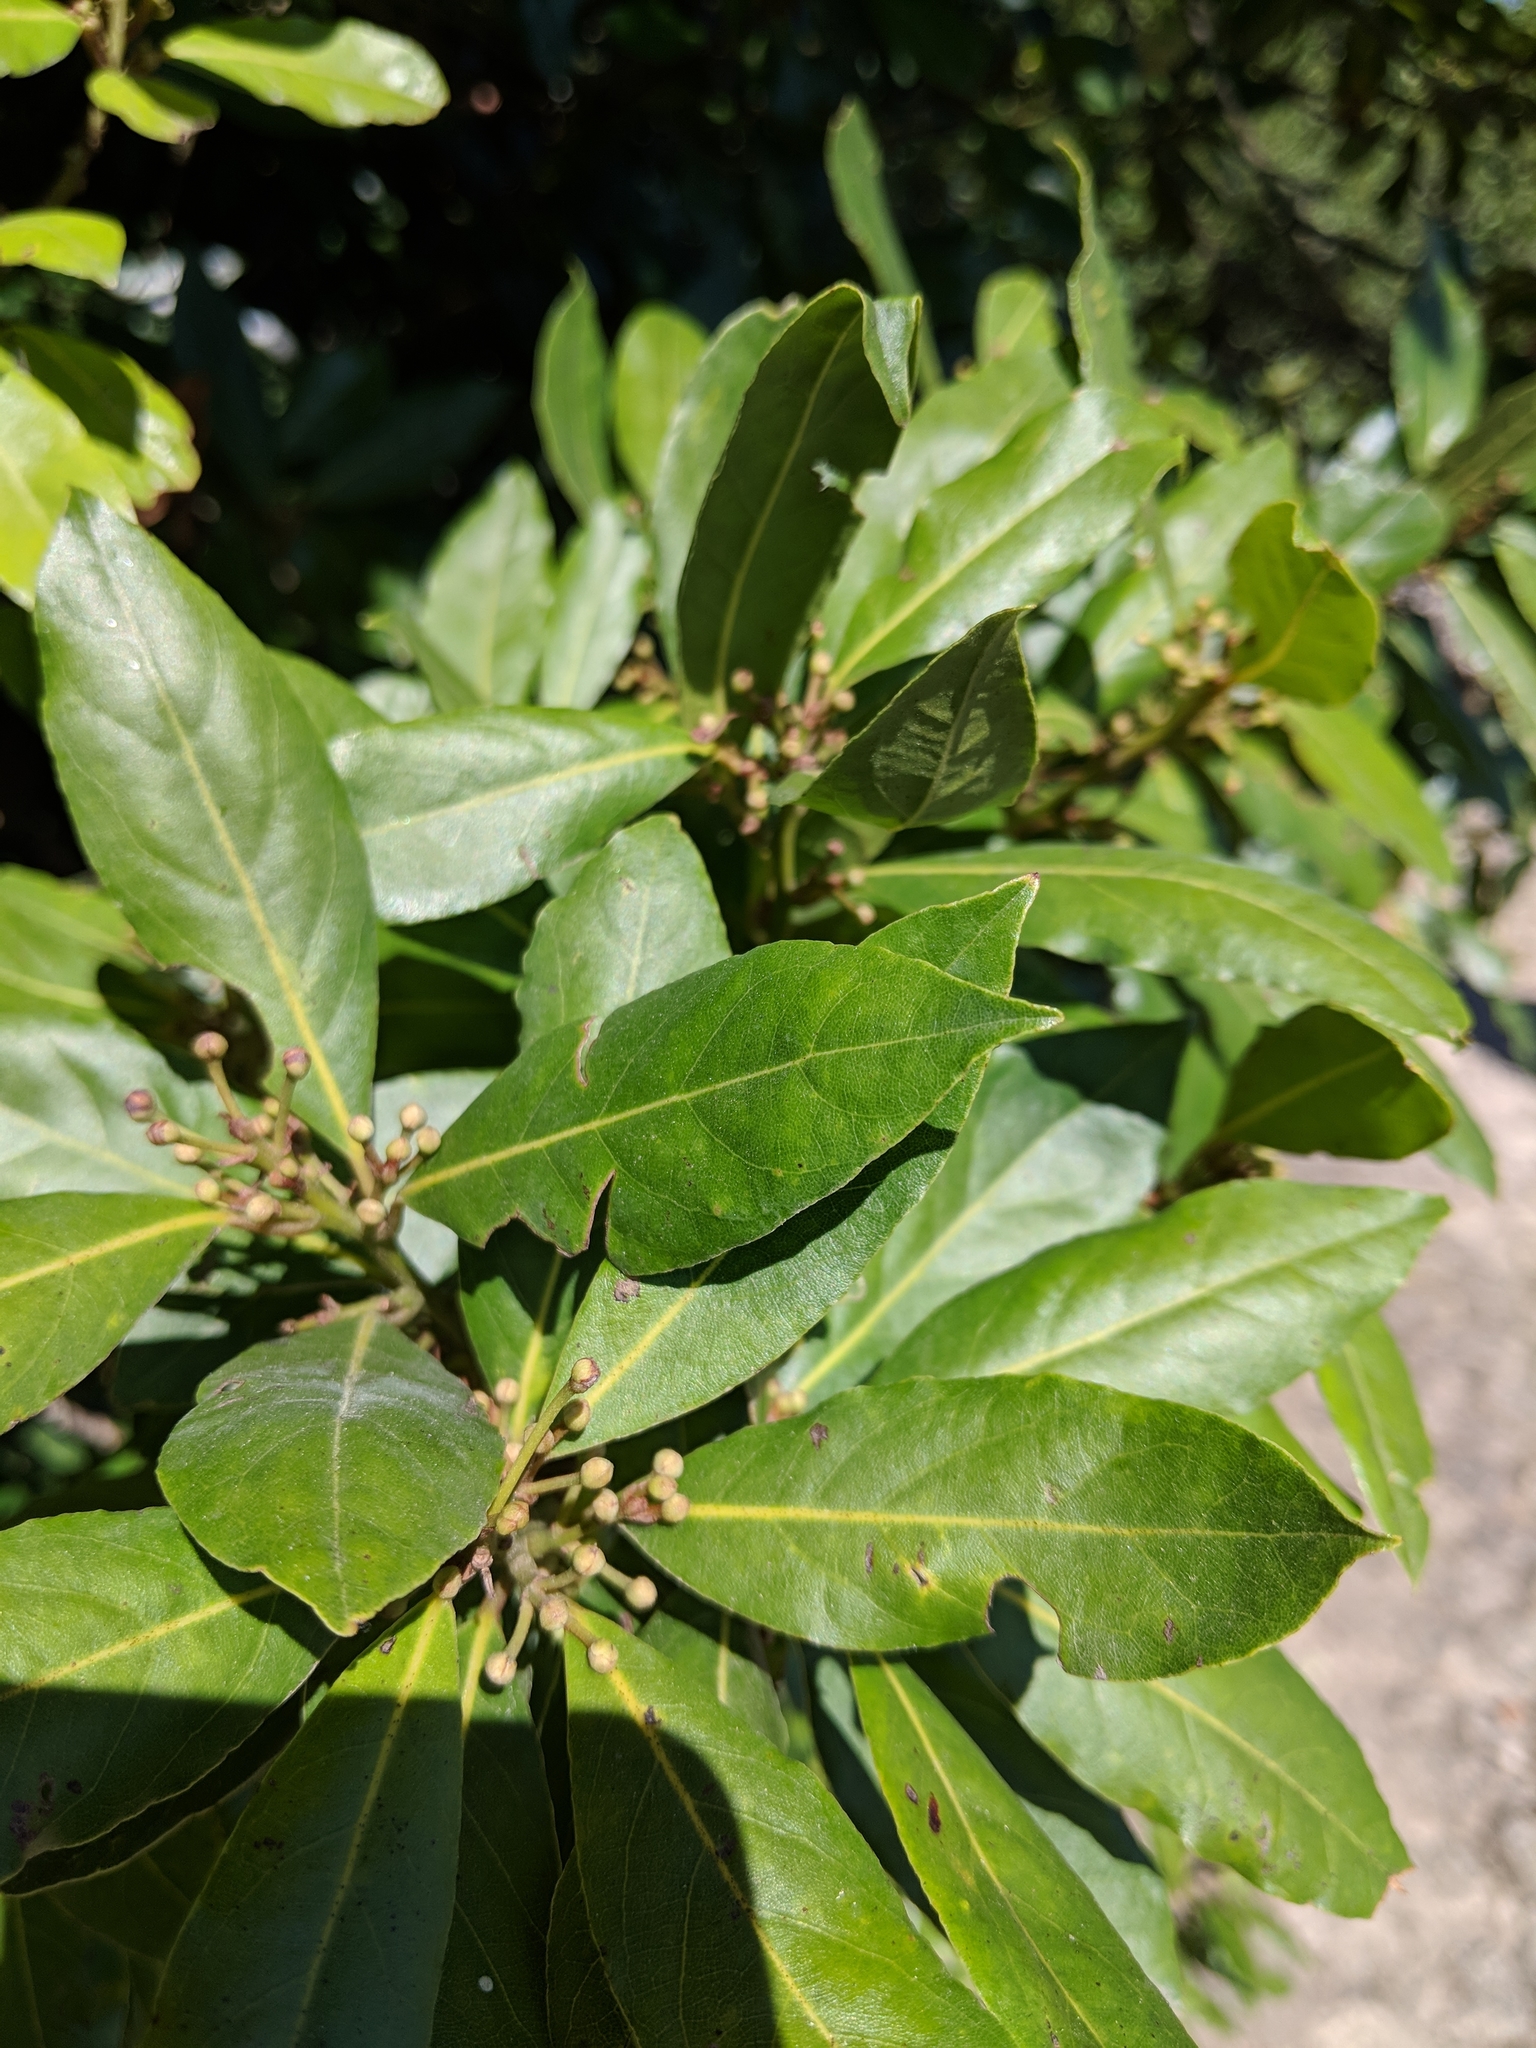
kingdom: Plantae
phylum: Tracheophyta
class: Magnoliopsida
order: Laurales
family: Lauraceae
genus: Laurus
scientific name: Laurus nobilis
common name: Bay
